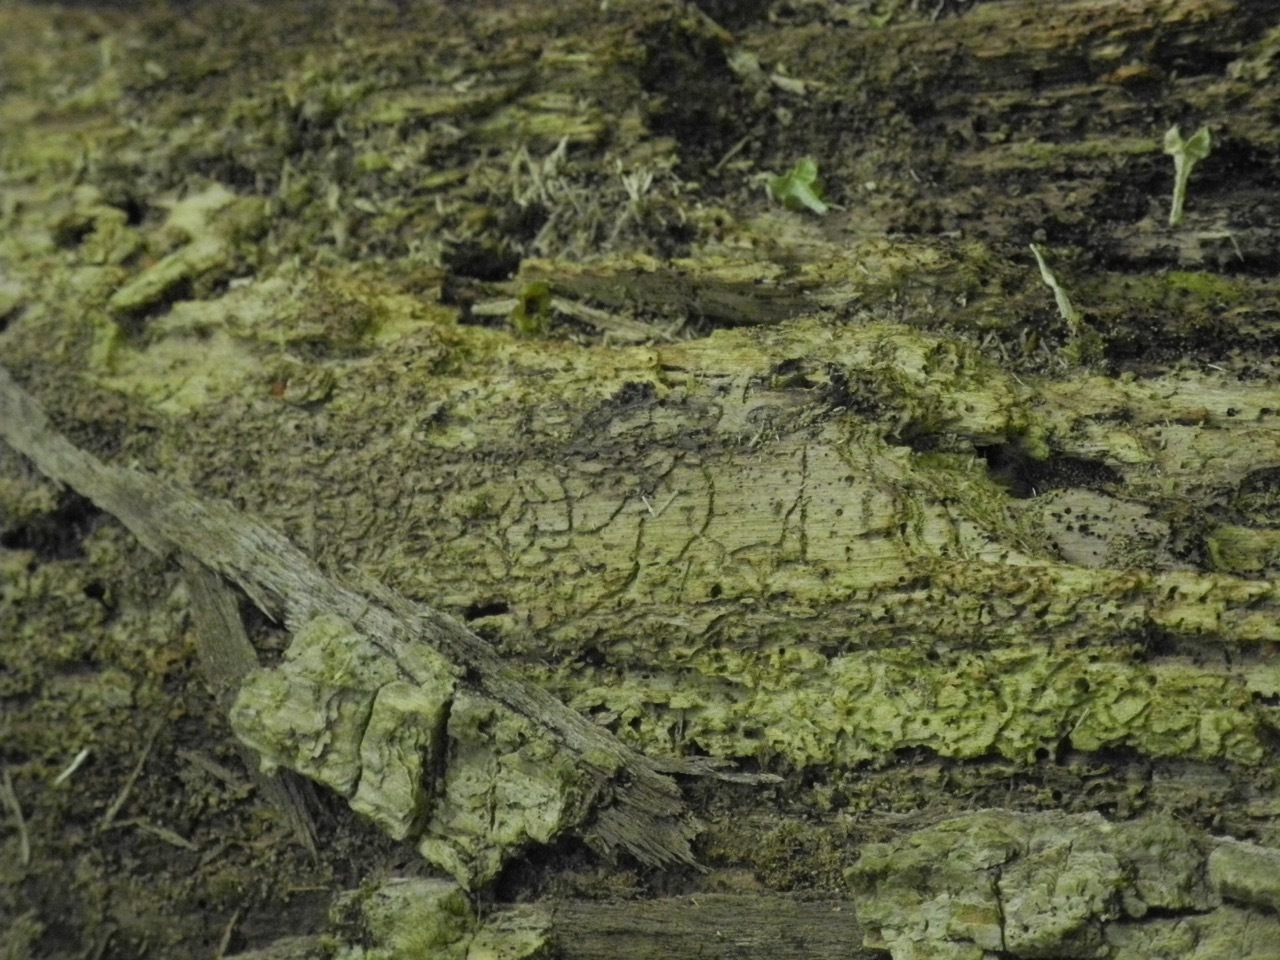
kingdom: Animalia
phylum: Arthropoda
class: Insecta
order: Coleoptera
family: Buprestidae
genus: Agrilus
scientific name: Agrilus planipennis
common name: Emerald ash borer
